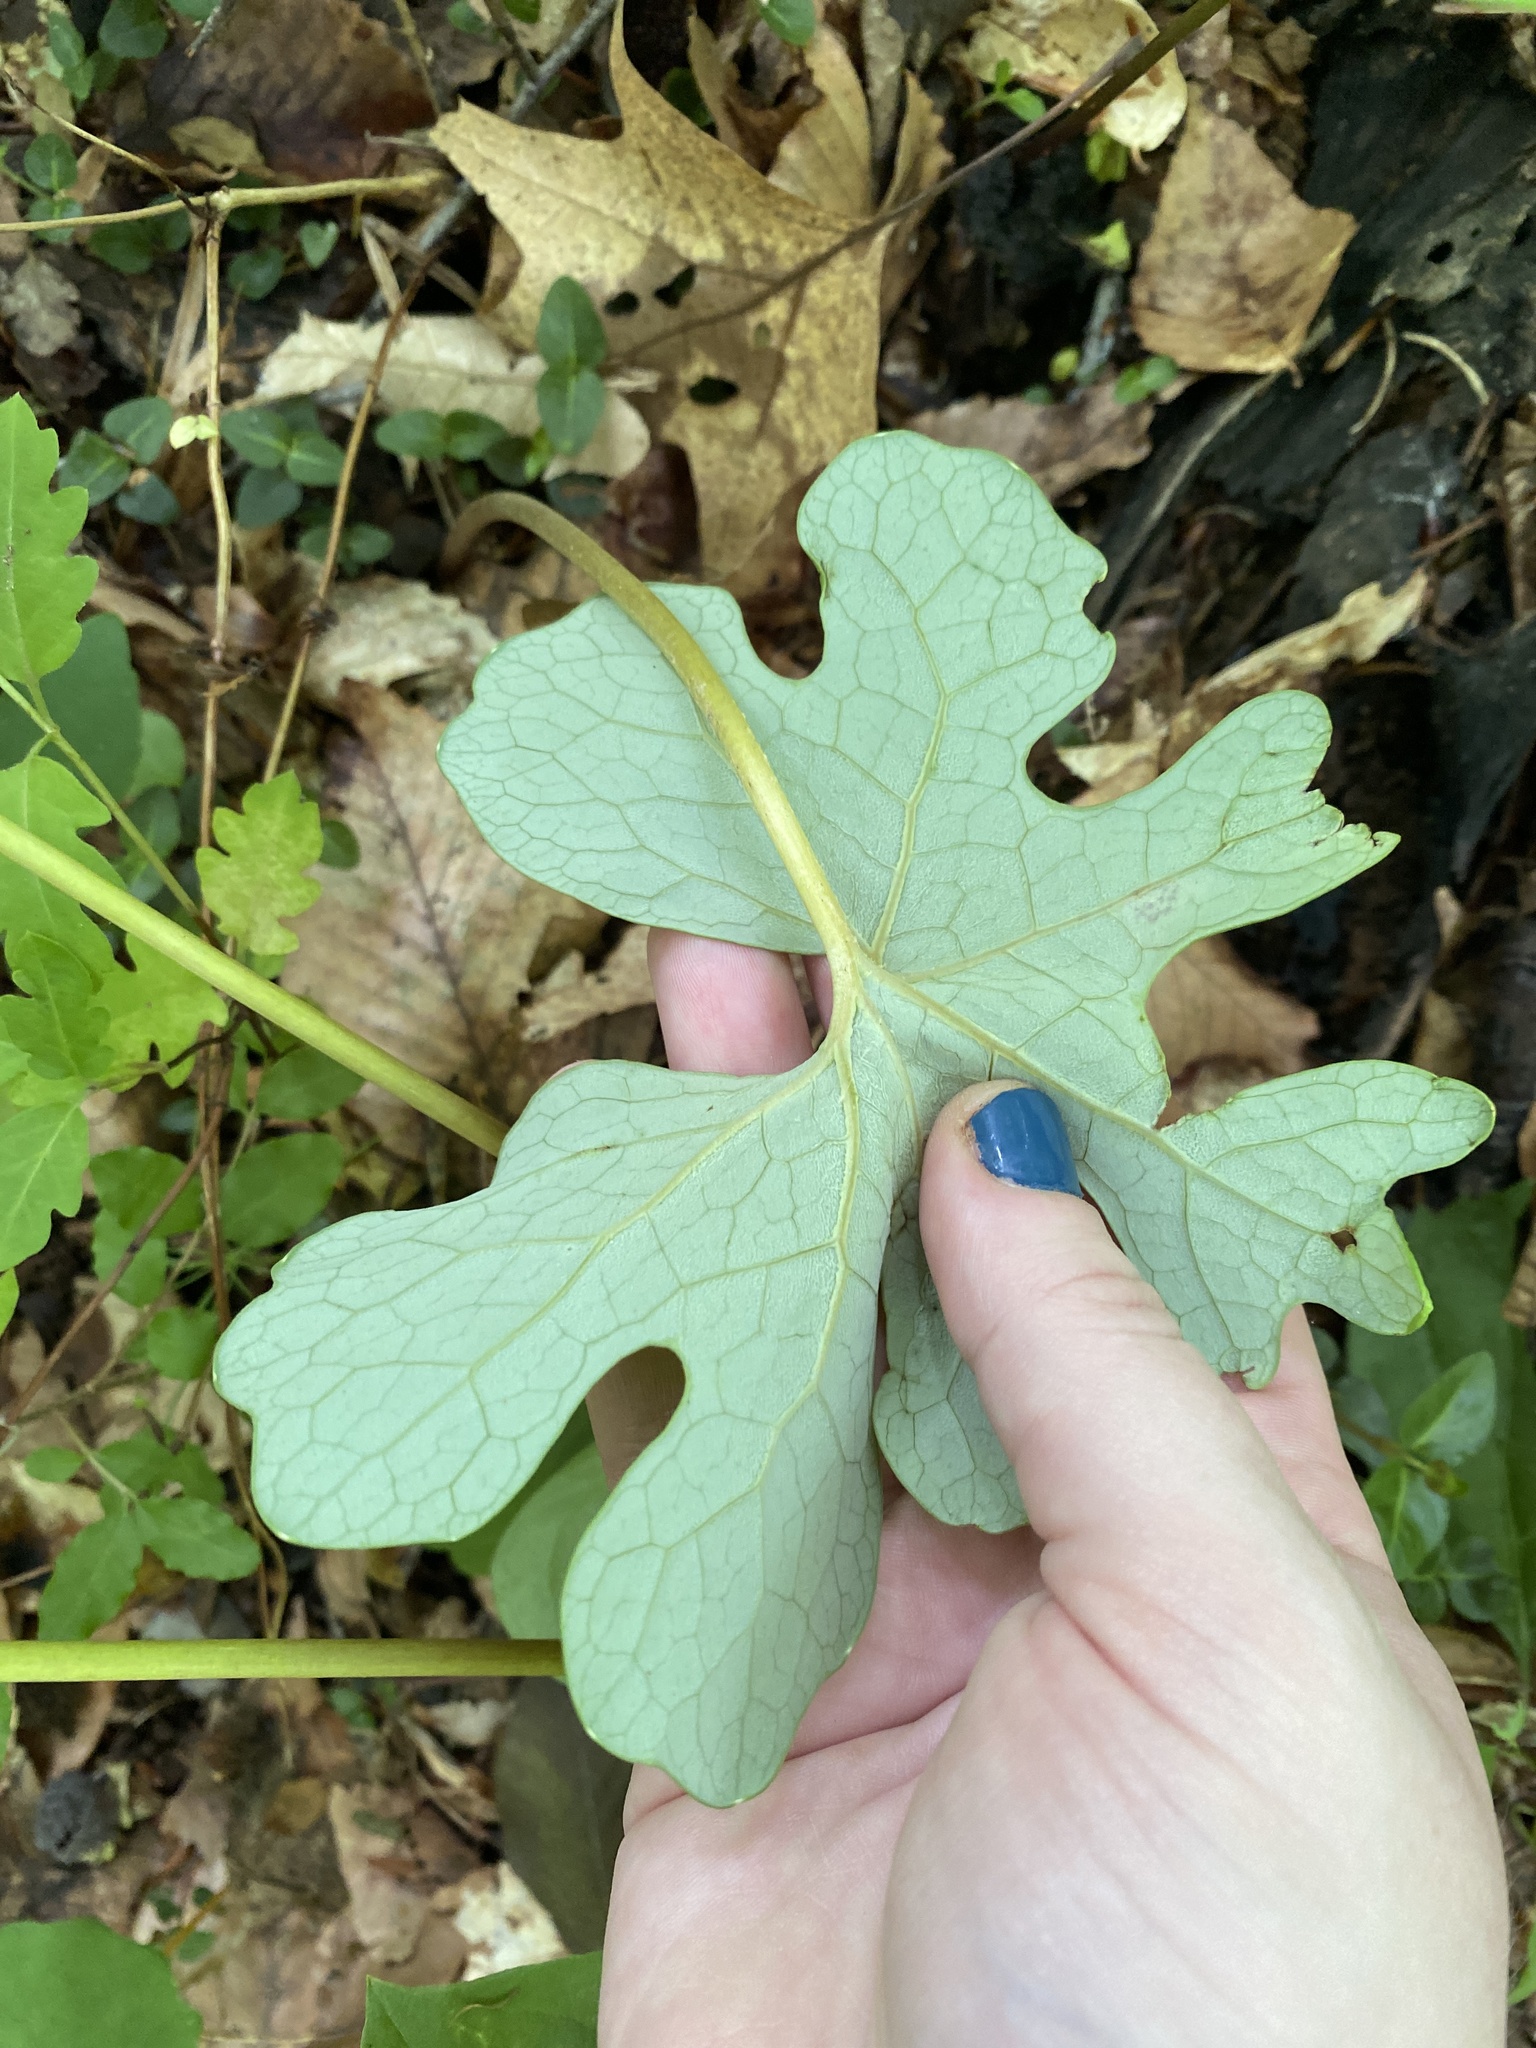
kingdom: Plantae
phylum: Tracheophyta
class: Magnoliopsida
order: Ranunculales
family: Papaveraceae
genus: Sanguinaria
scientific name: Sanguinaria canadensis
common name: Bloodroot
